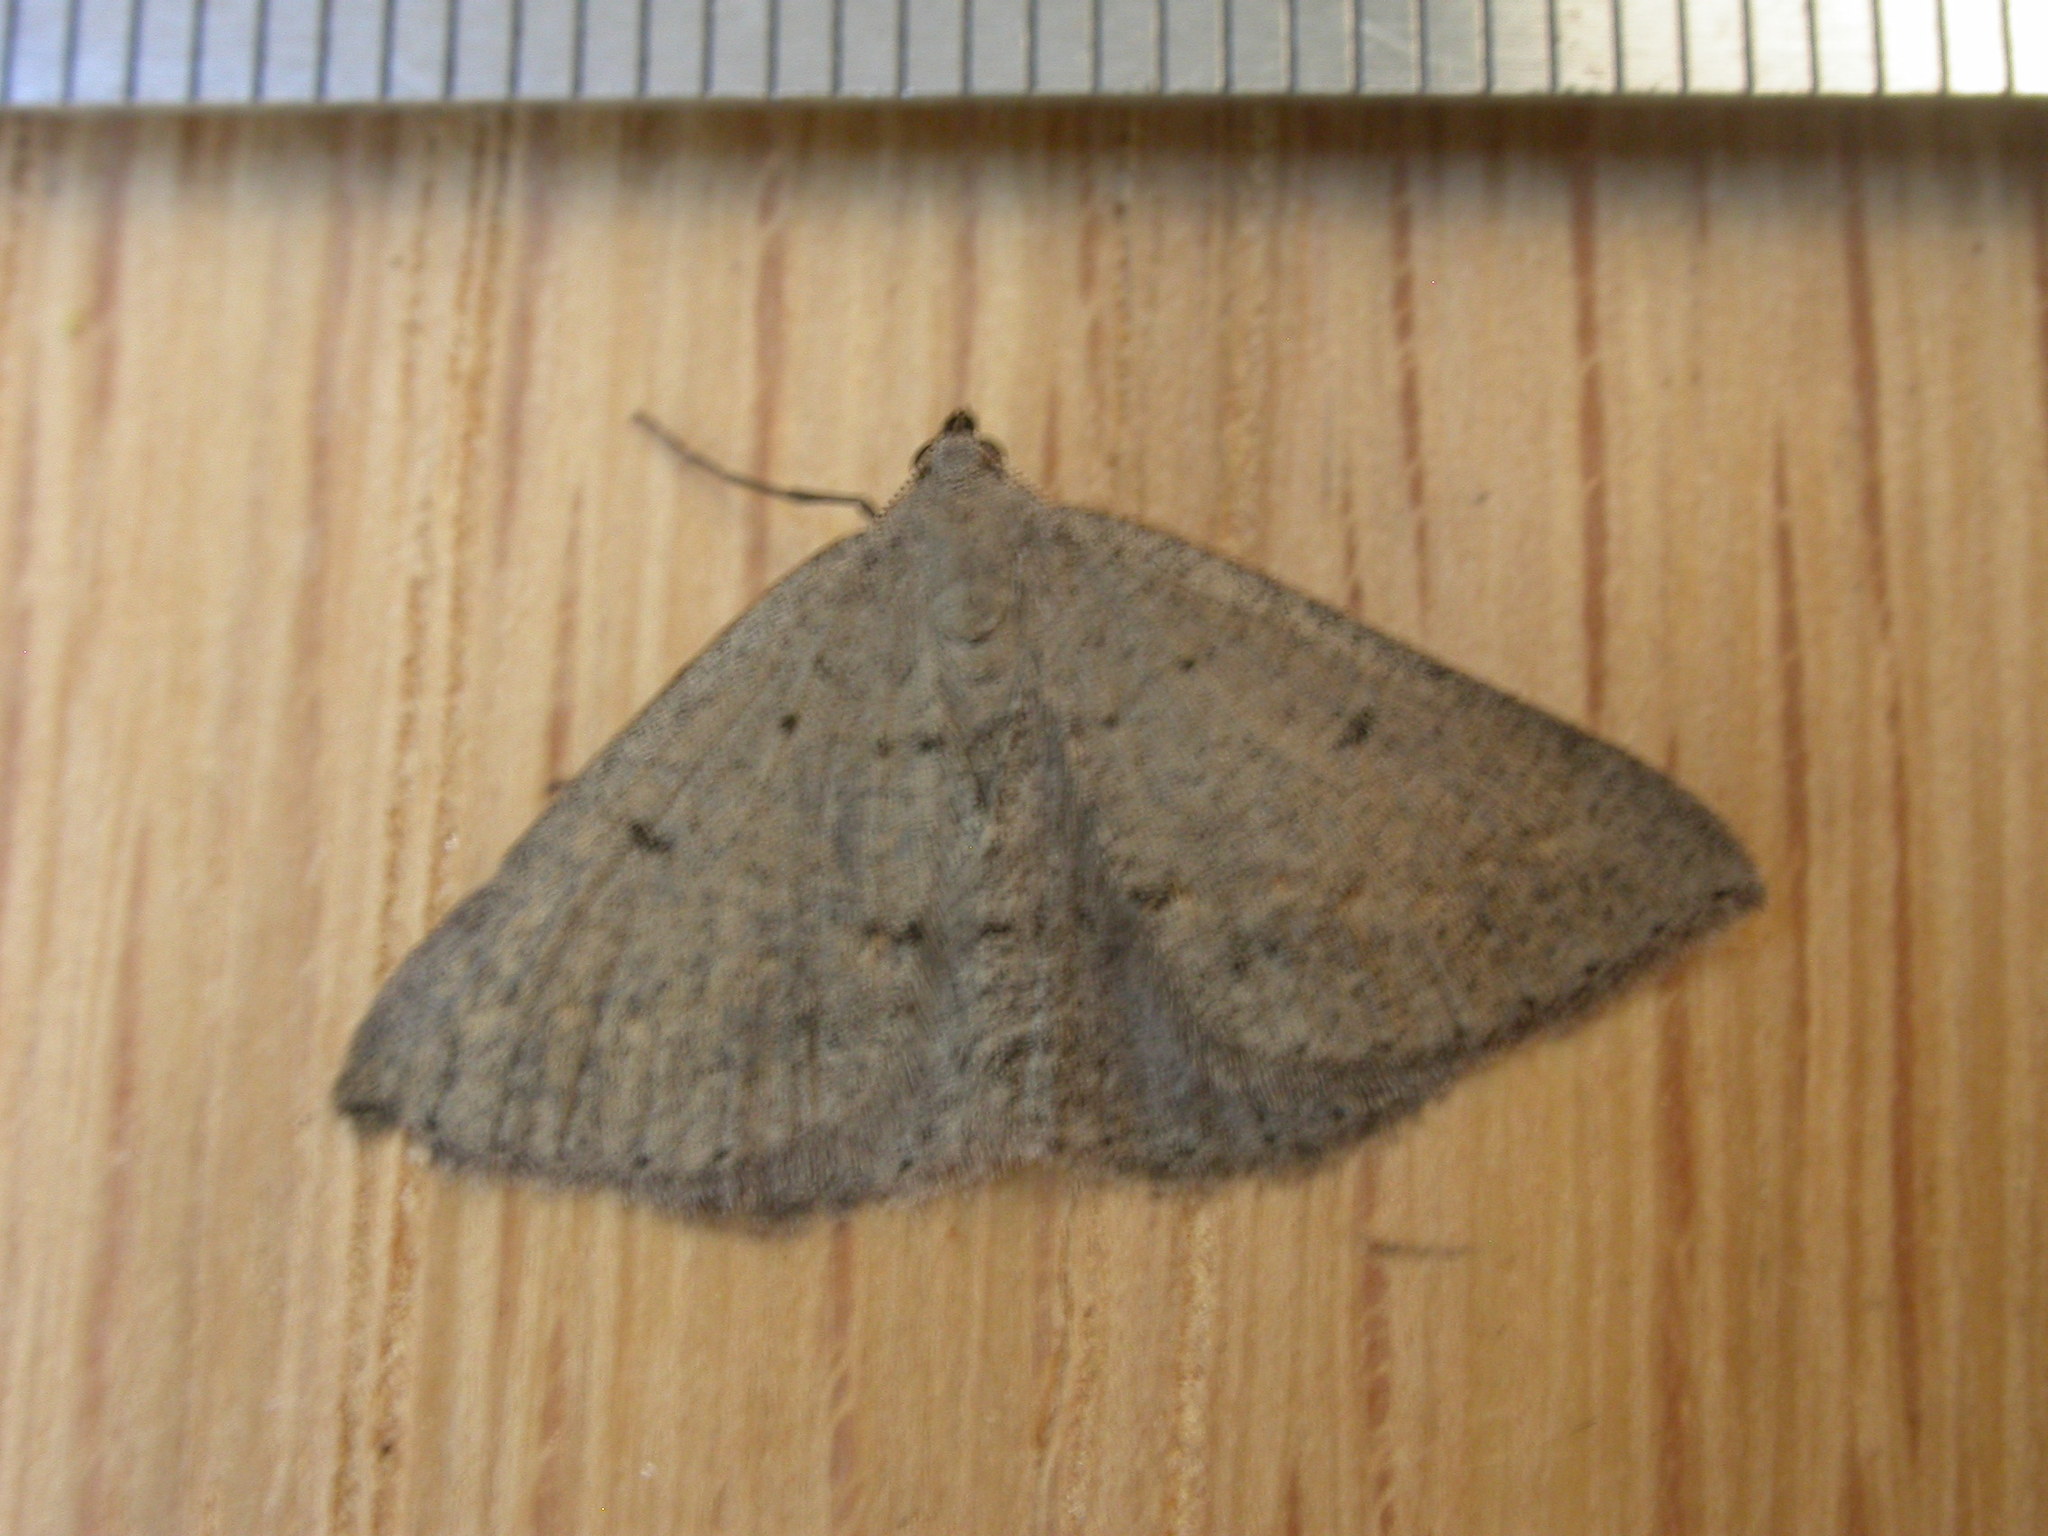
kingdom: Animalia
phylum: Arthropoda
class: Insecta
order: Lepidoptera
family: Geometridae
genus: Taxeotis
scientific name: Taxeotis reserata
